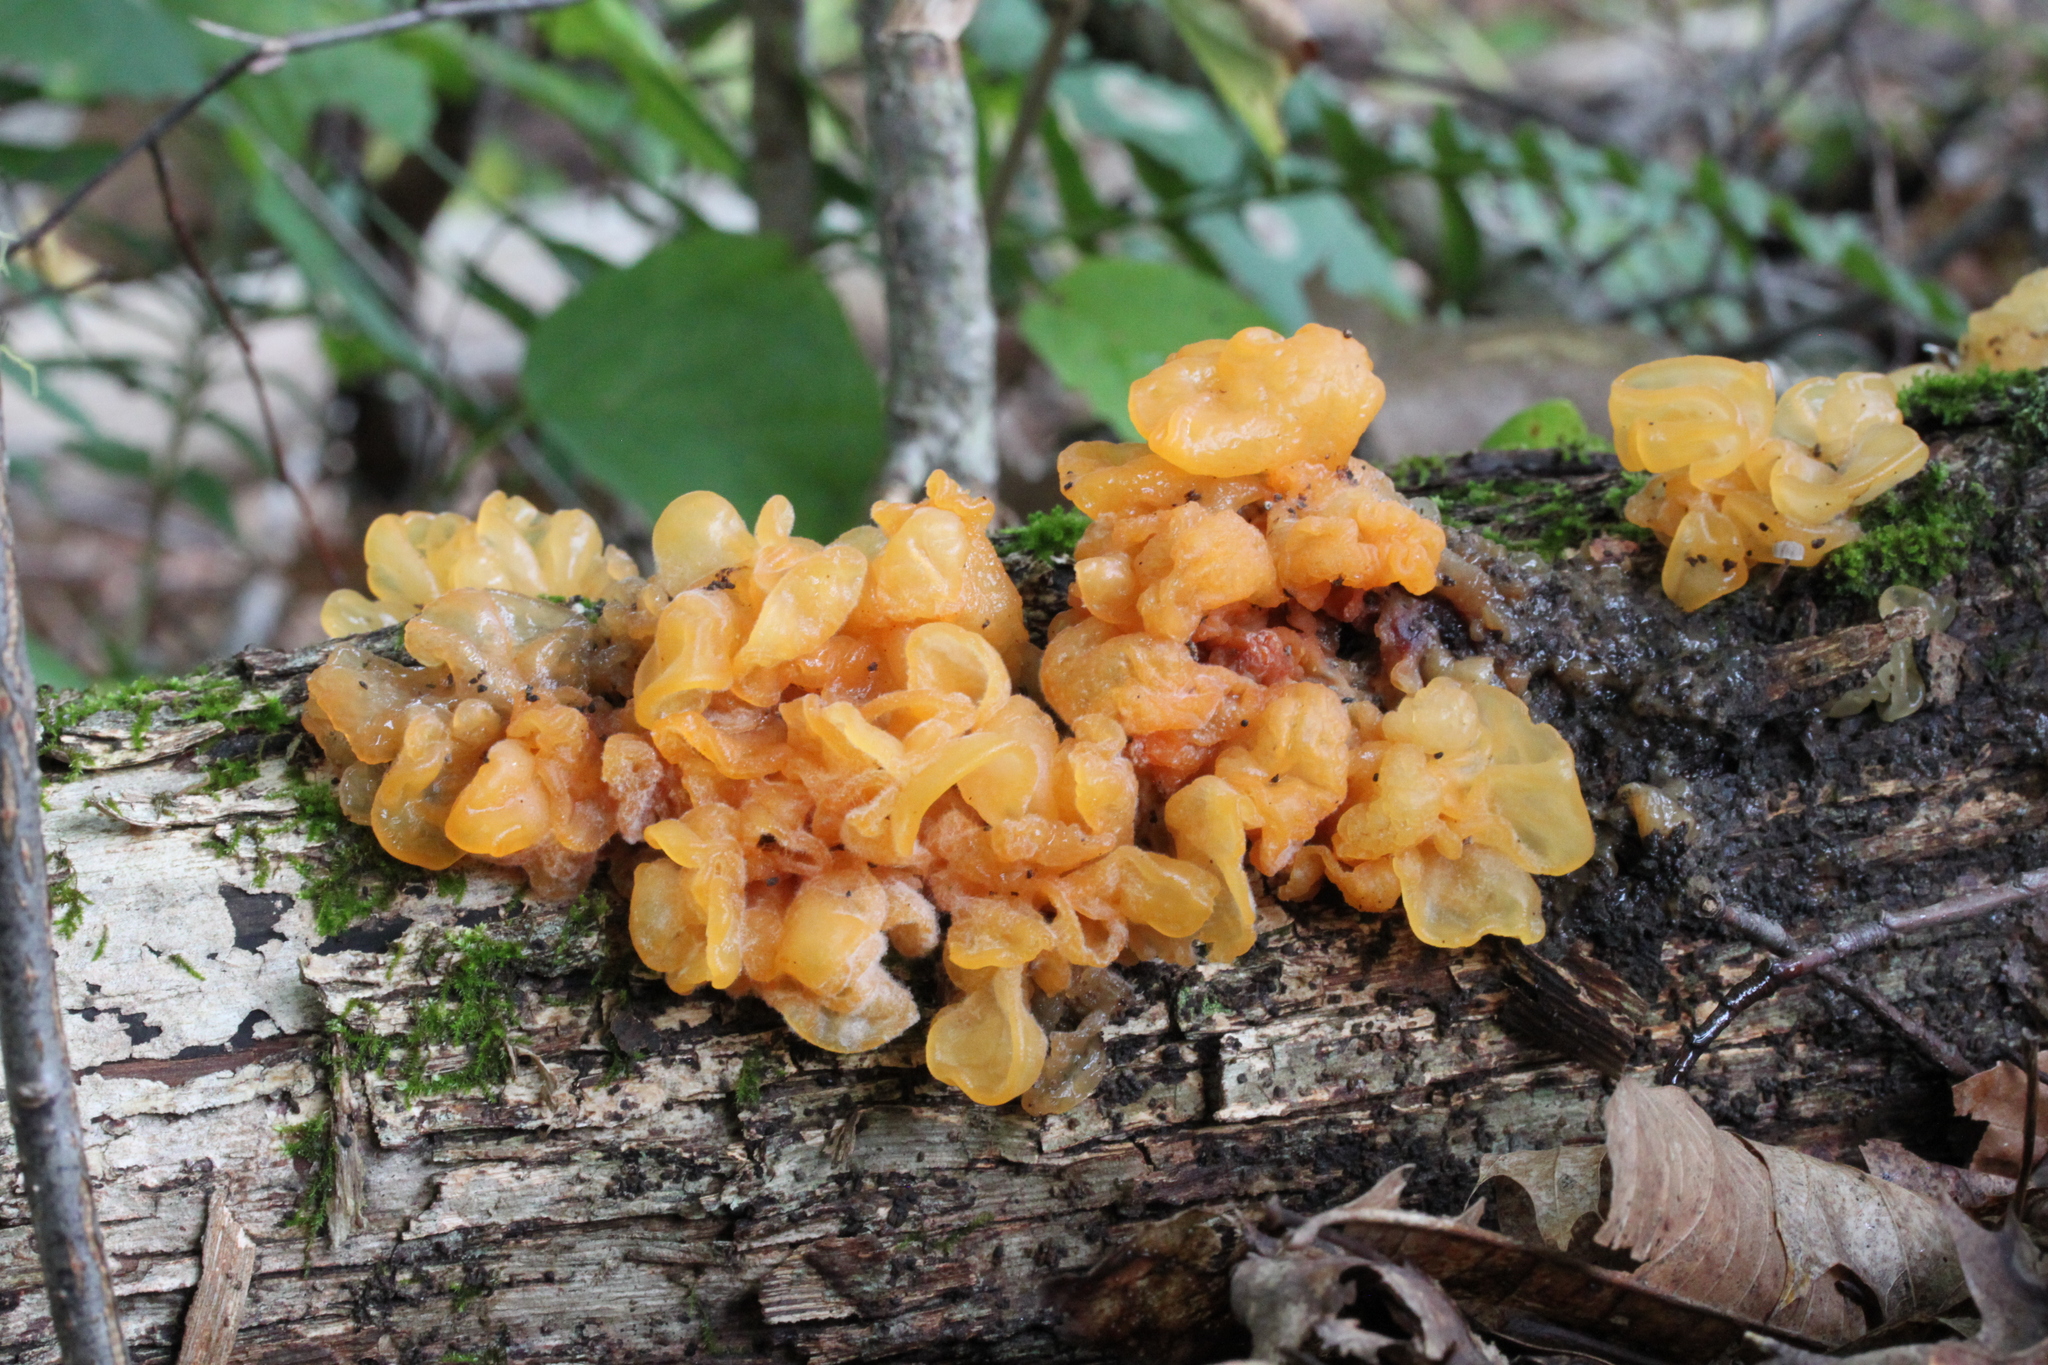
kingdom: Fungi
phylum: Basidiomycota
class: Tremellomycetes
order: Tremellales
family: Tremellaceae
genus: Tremella
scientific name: Tremella mesenterica
